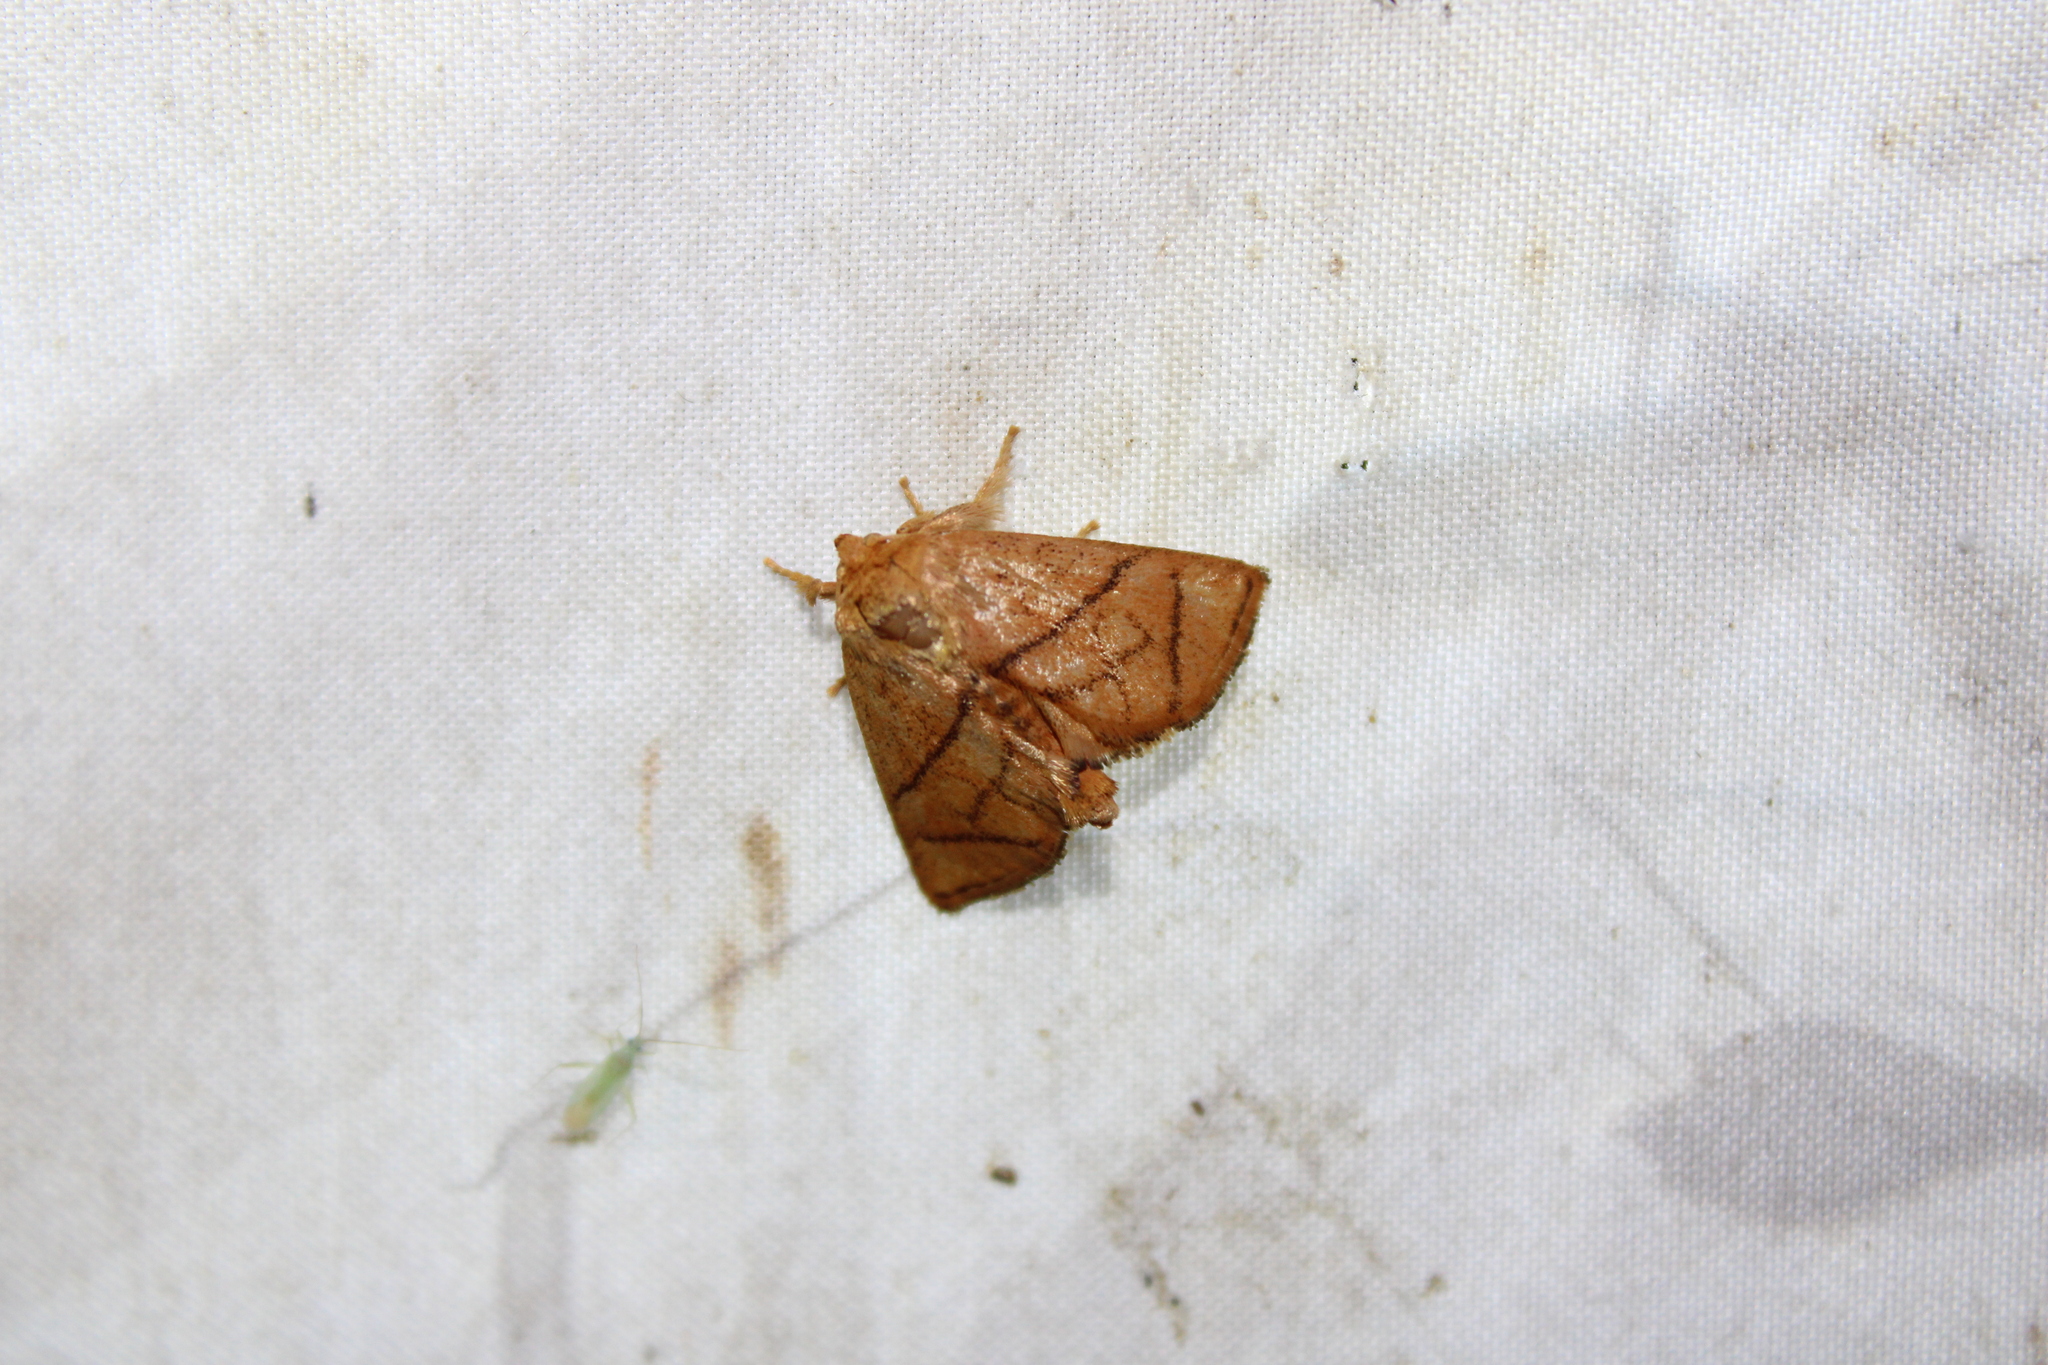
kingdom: Animalia
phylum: Arthropoda
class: Insecta
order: Lepidoptera
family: Limacodidae
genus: Apoda
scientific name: Apoda y-inversa
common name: Yellow-collared slug moth
